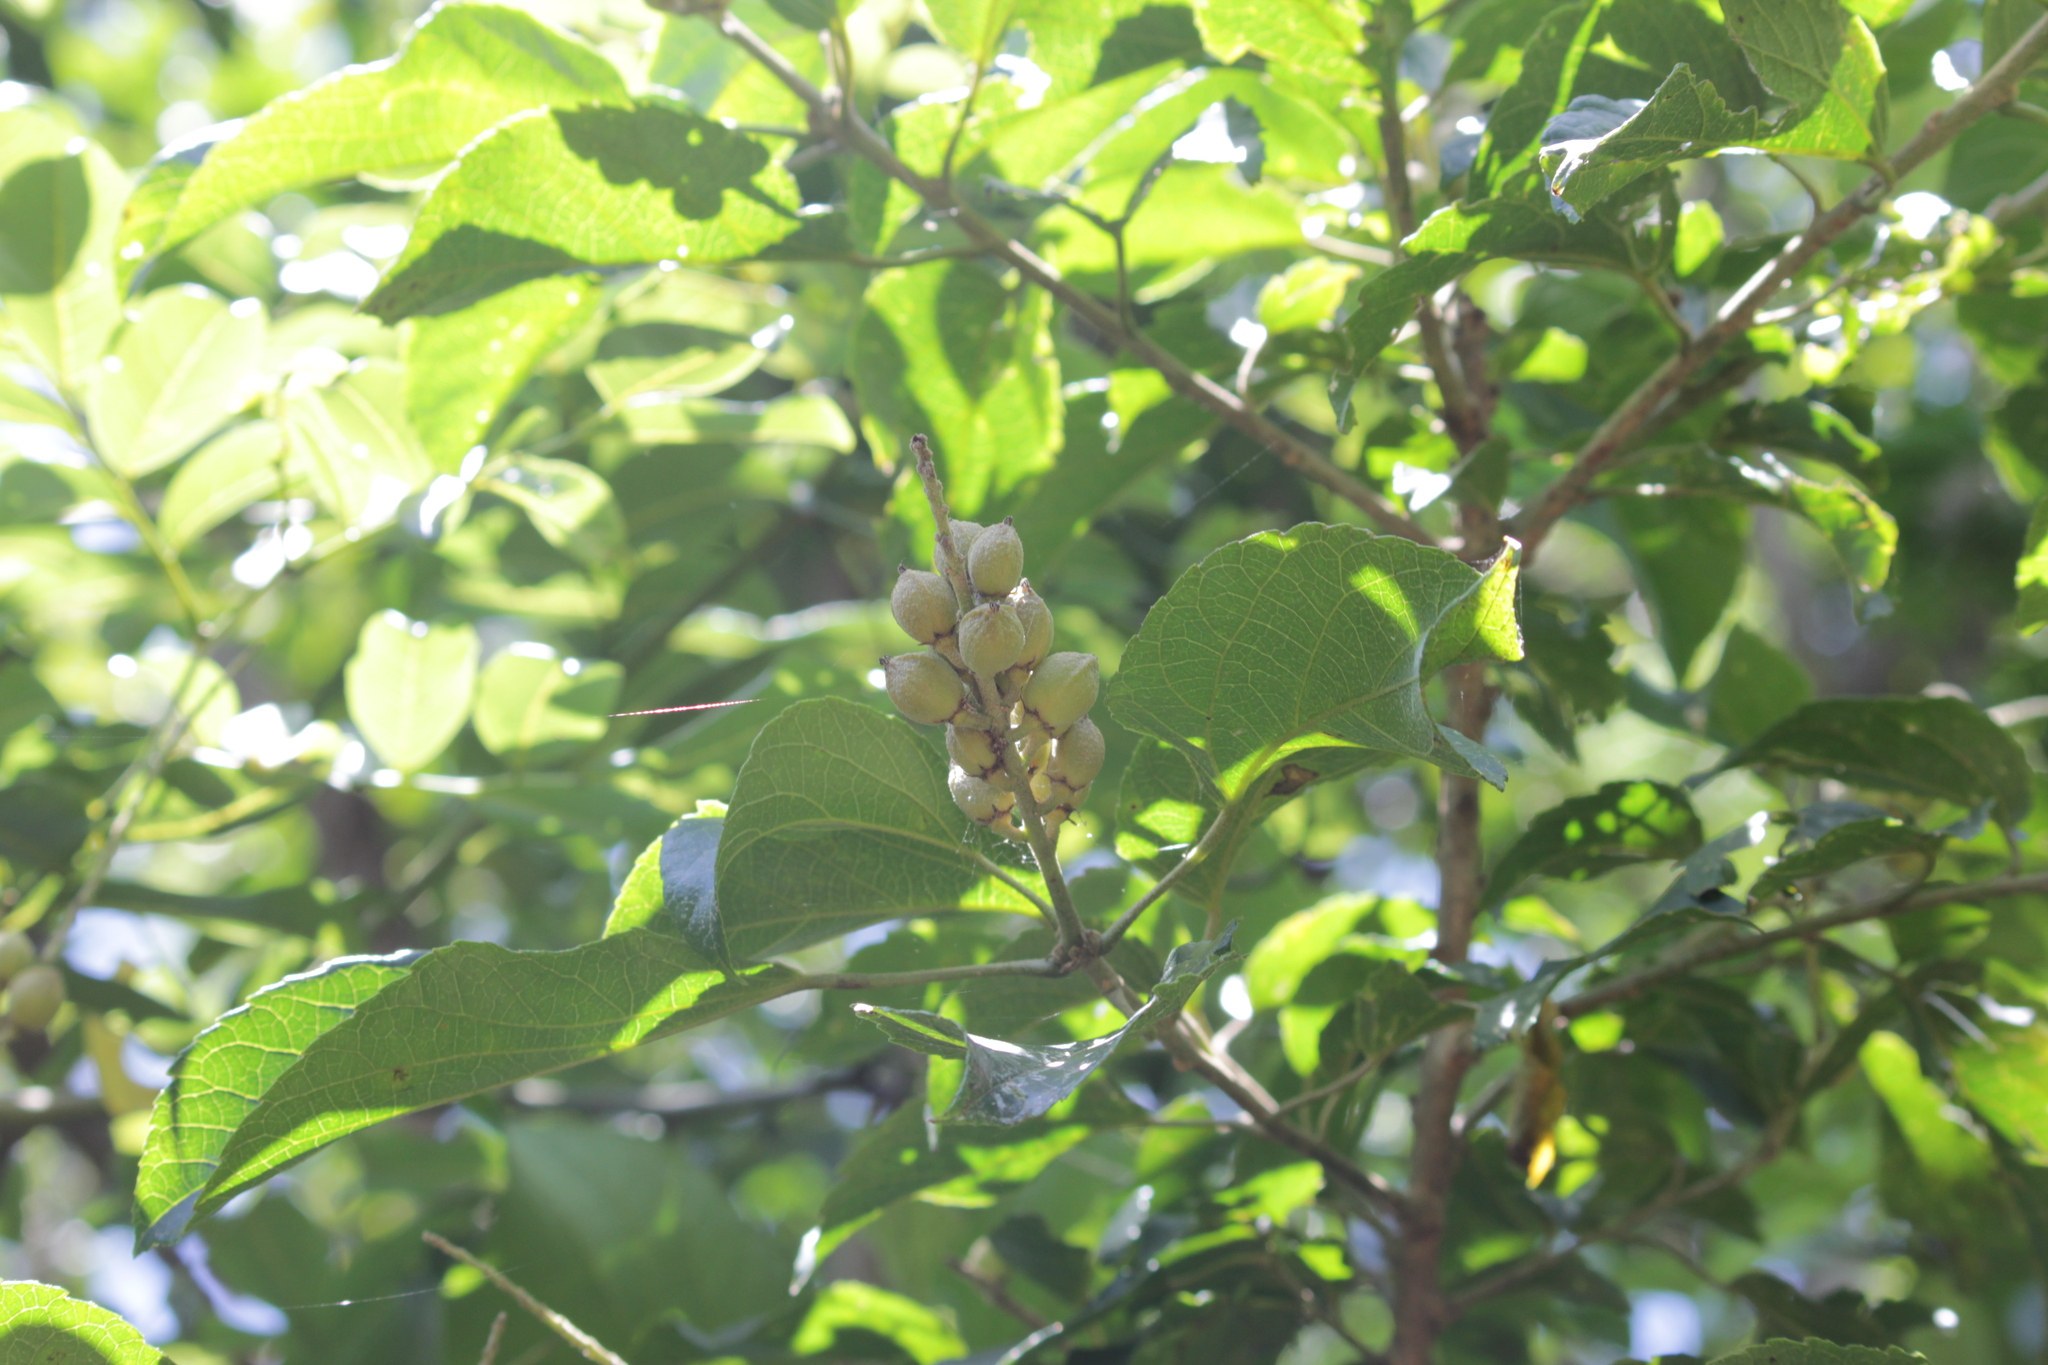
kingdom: Plantae
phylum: Tracheophyta
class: Magnoliopsida
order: Malpighiales
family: Euphorbiaceae
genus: Croton
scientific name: Croton sylvaticus
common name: Forest croton
